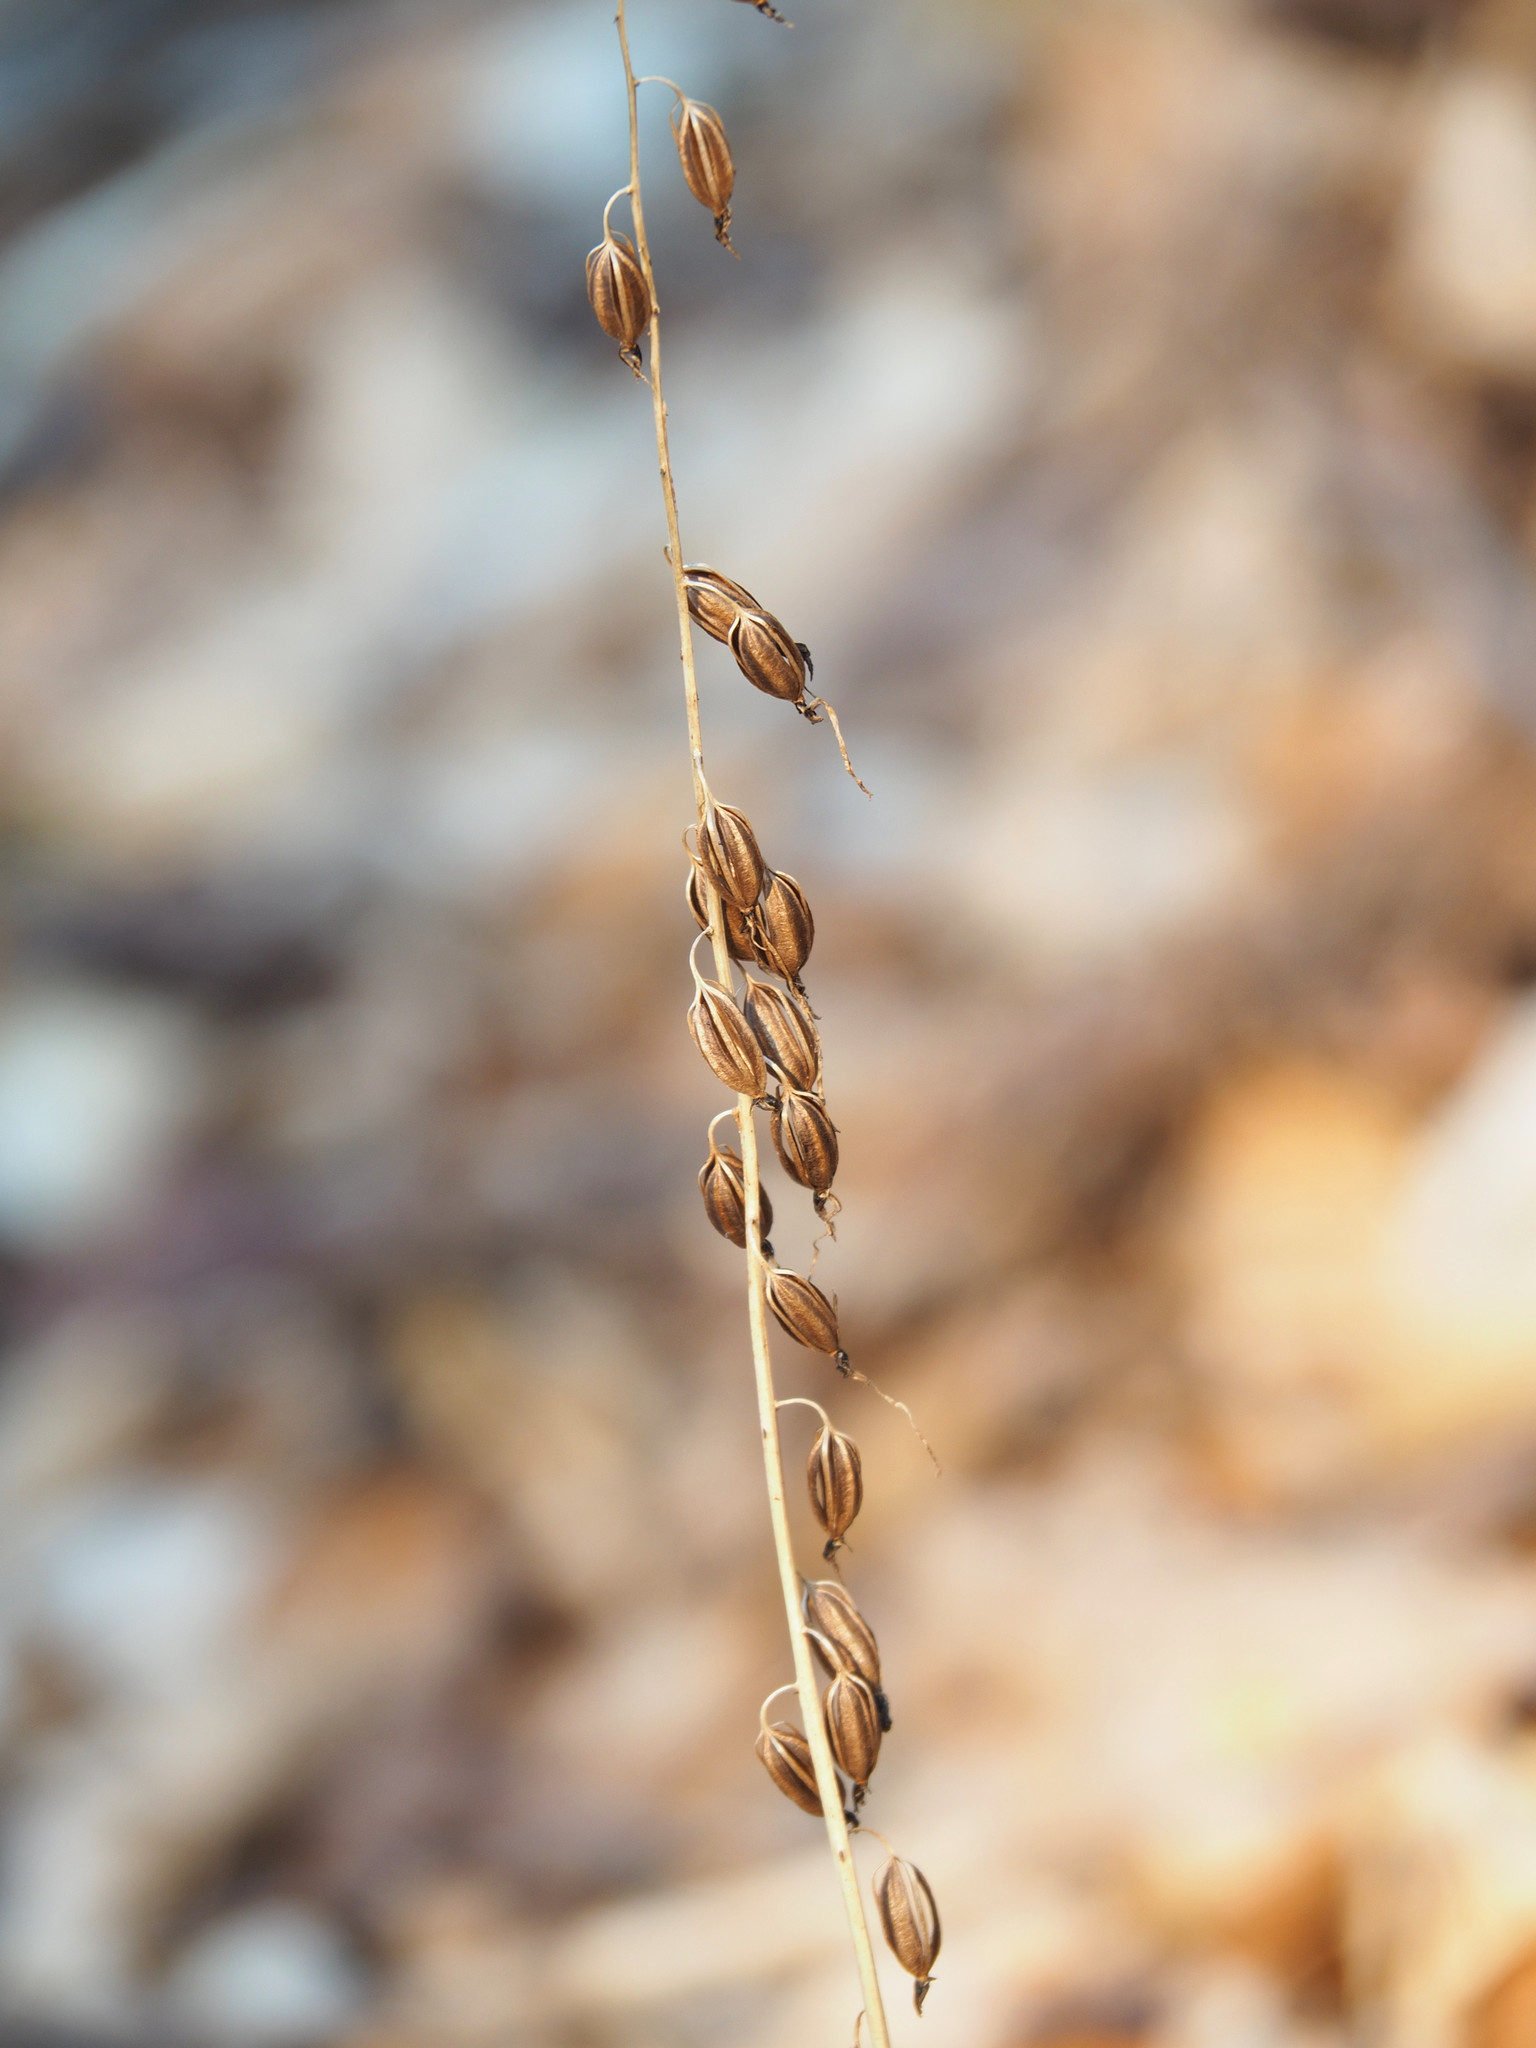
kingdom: Plantae
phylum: Tracheophyta
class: Liliopsida
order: Asparagales
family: Orchidaceae
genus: Tipularia
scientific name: Tipularia discolor
